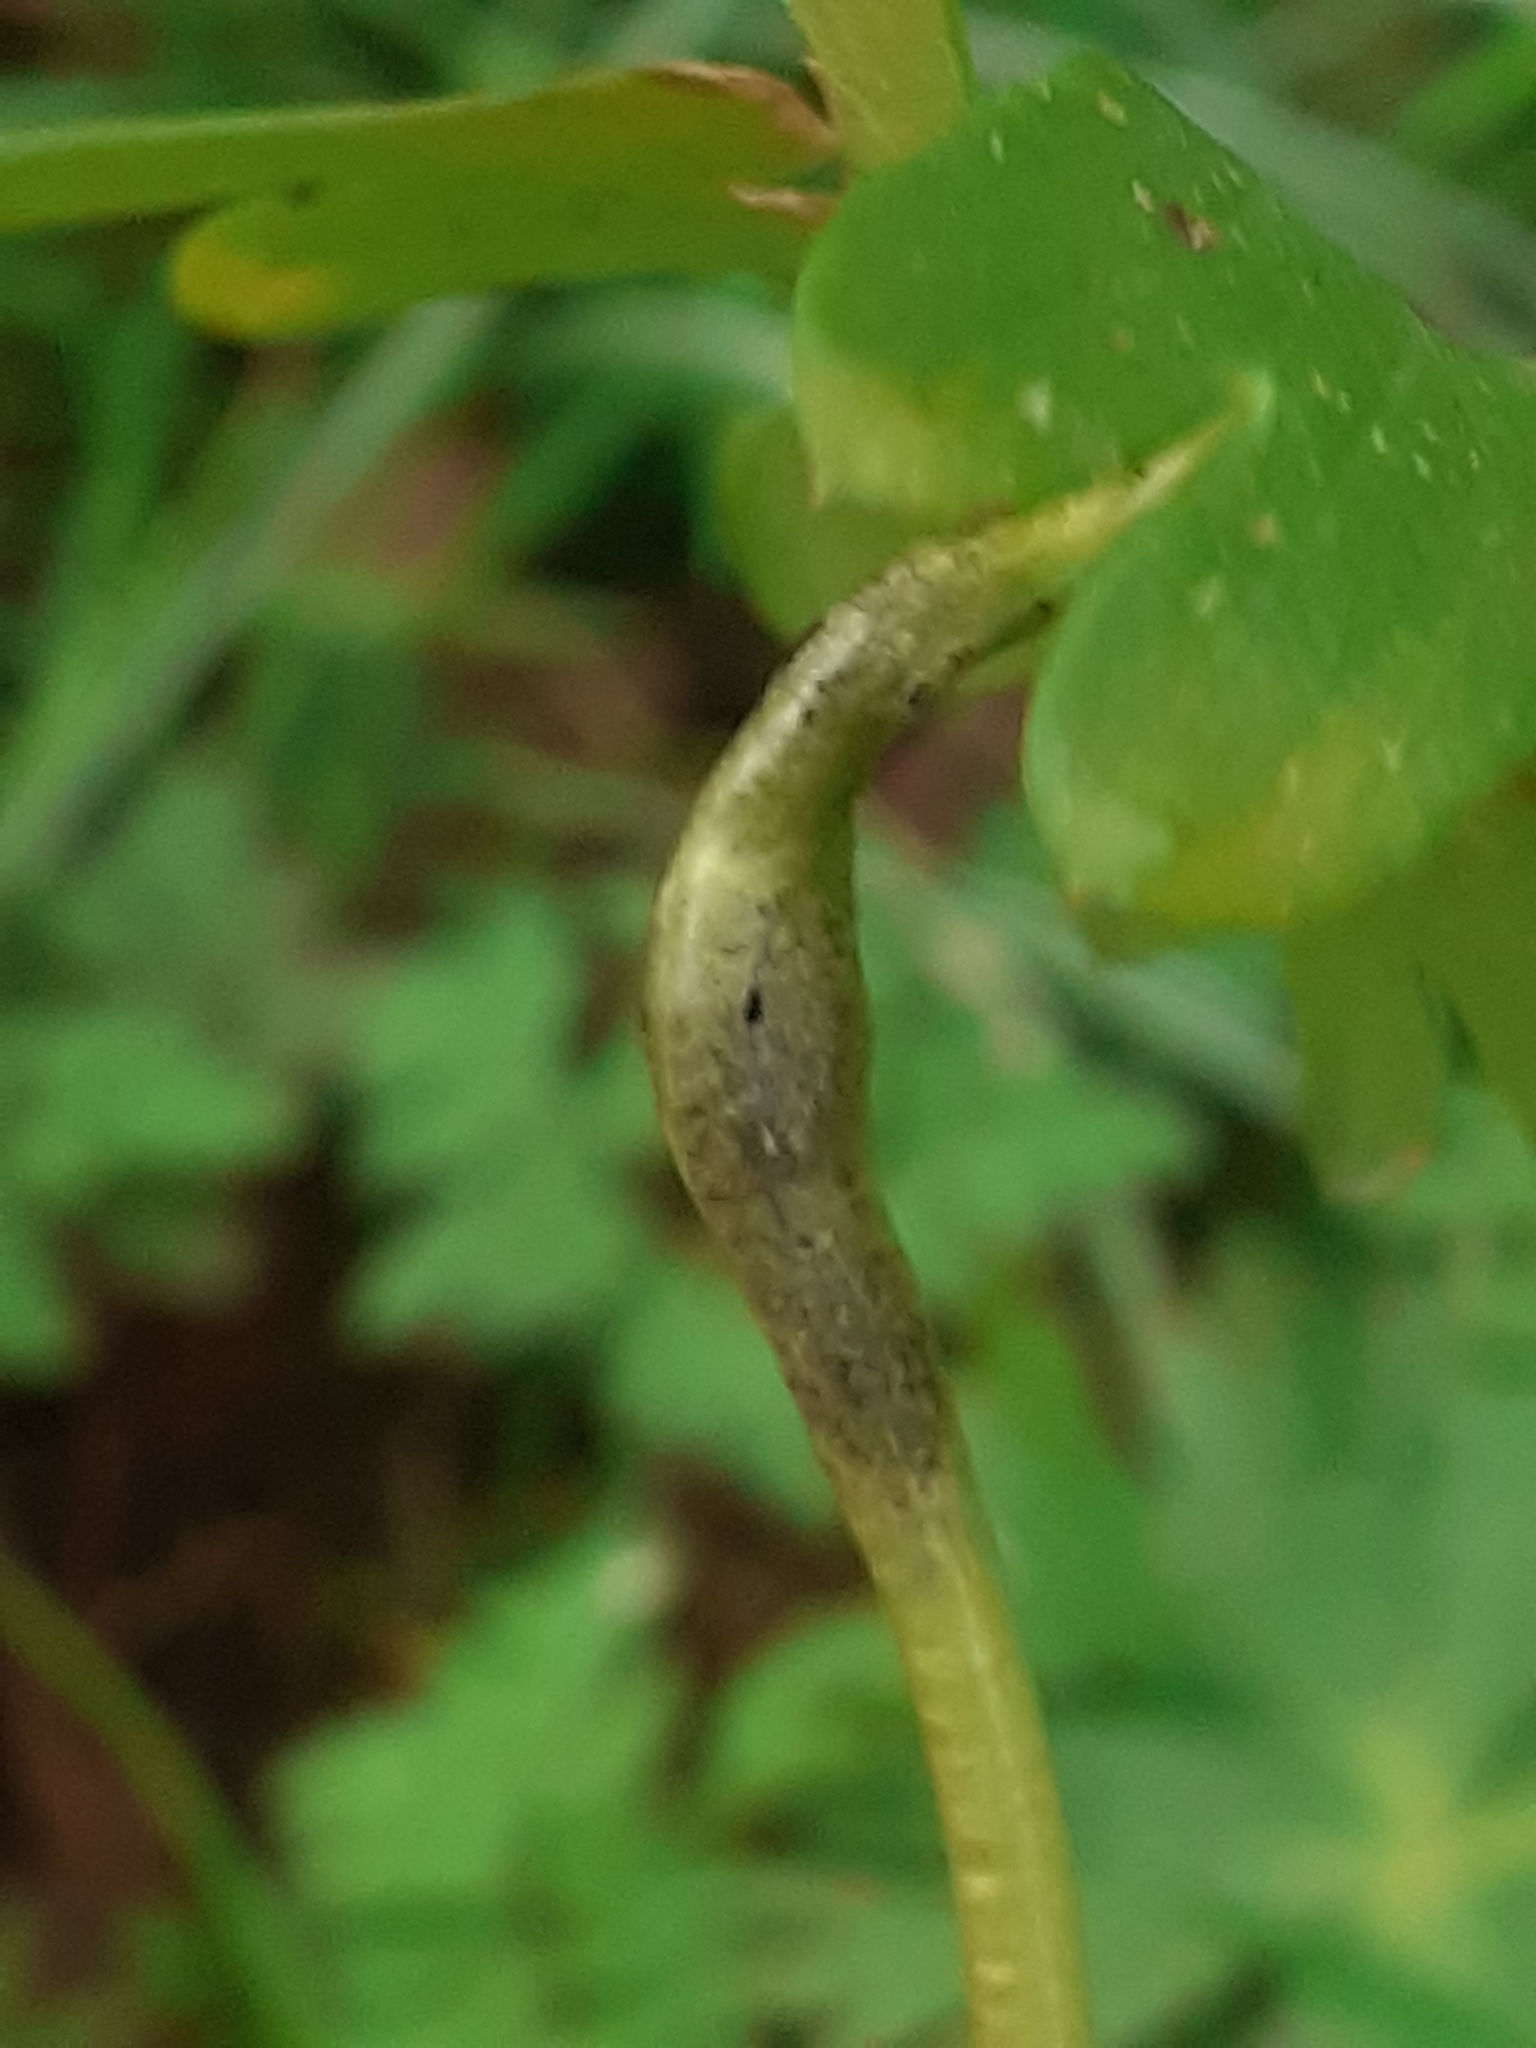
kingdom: Fungi
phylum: Basidiomycota
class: Ustilaginomycetes
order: Urocystidales
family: Urocystidaceae
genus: Urocystis
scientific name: Urocystis eranthidis
